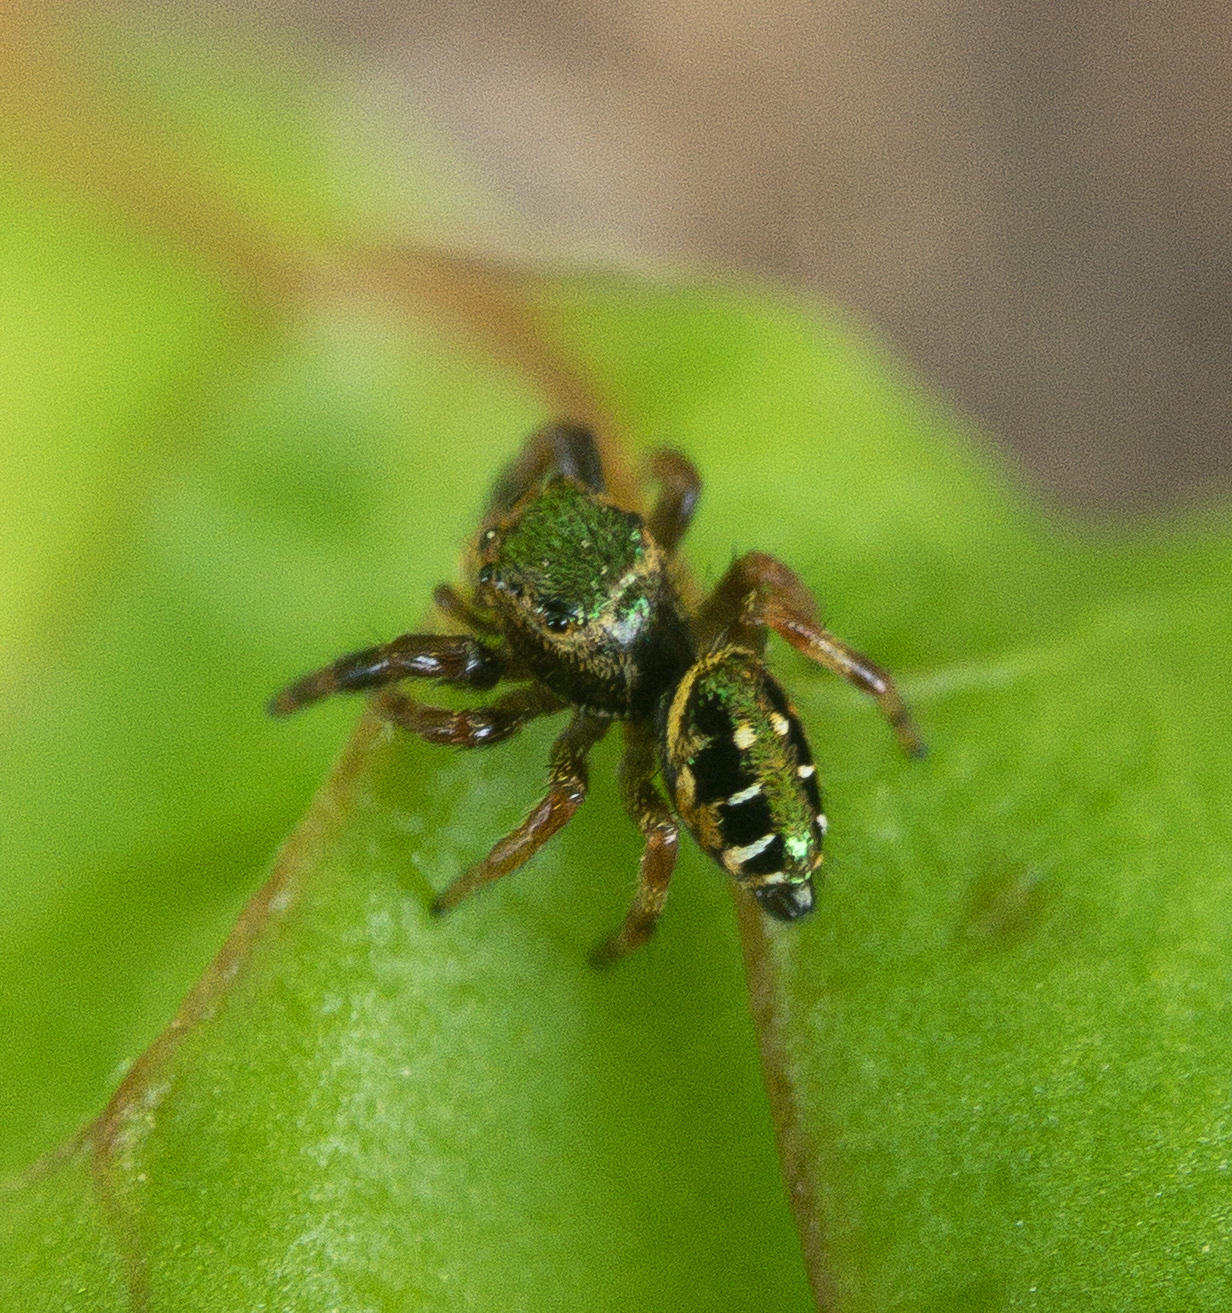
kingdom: Animalia
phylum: Arthropoda
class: Arachnida
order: Araneae
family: Salticidae
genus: Paraphidippus
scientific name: Paraphidippus aurantius
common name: Jumping spiders
